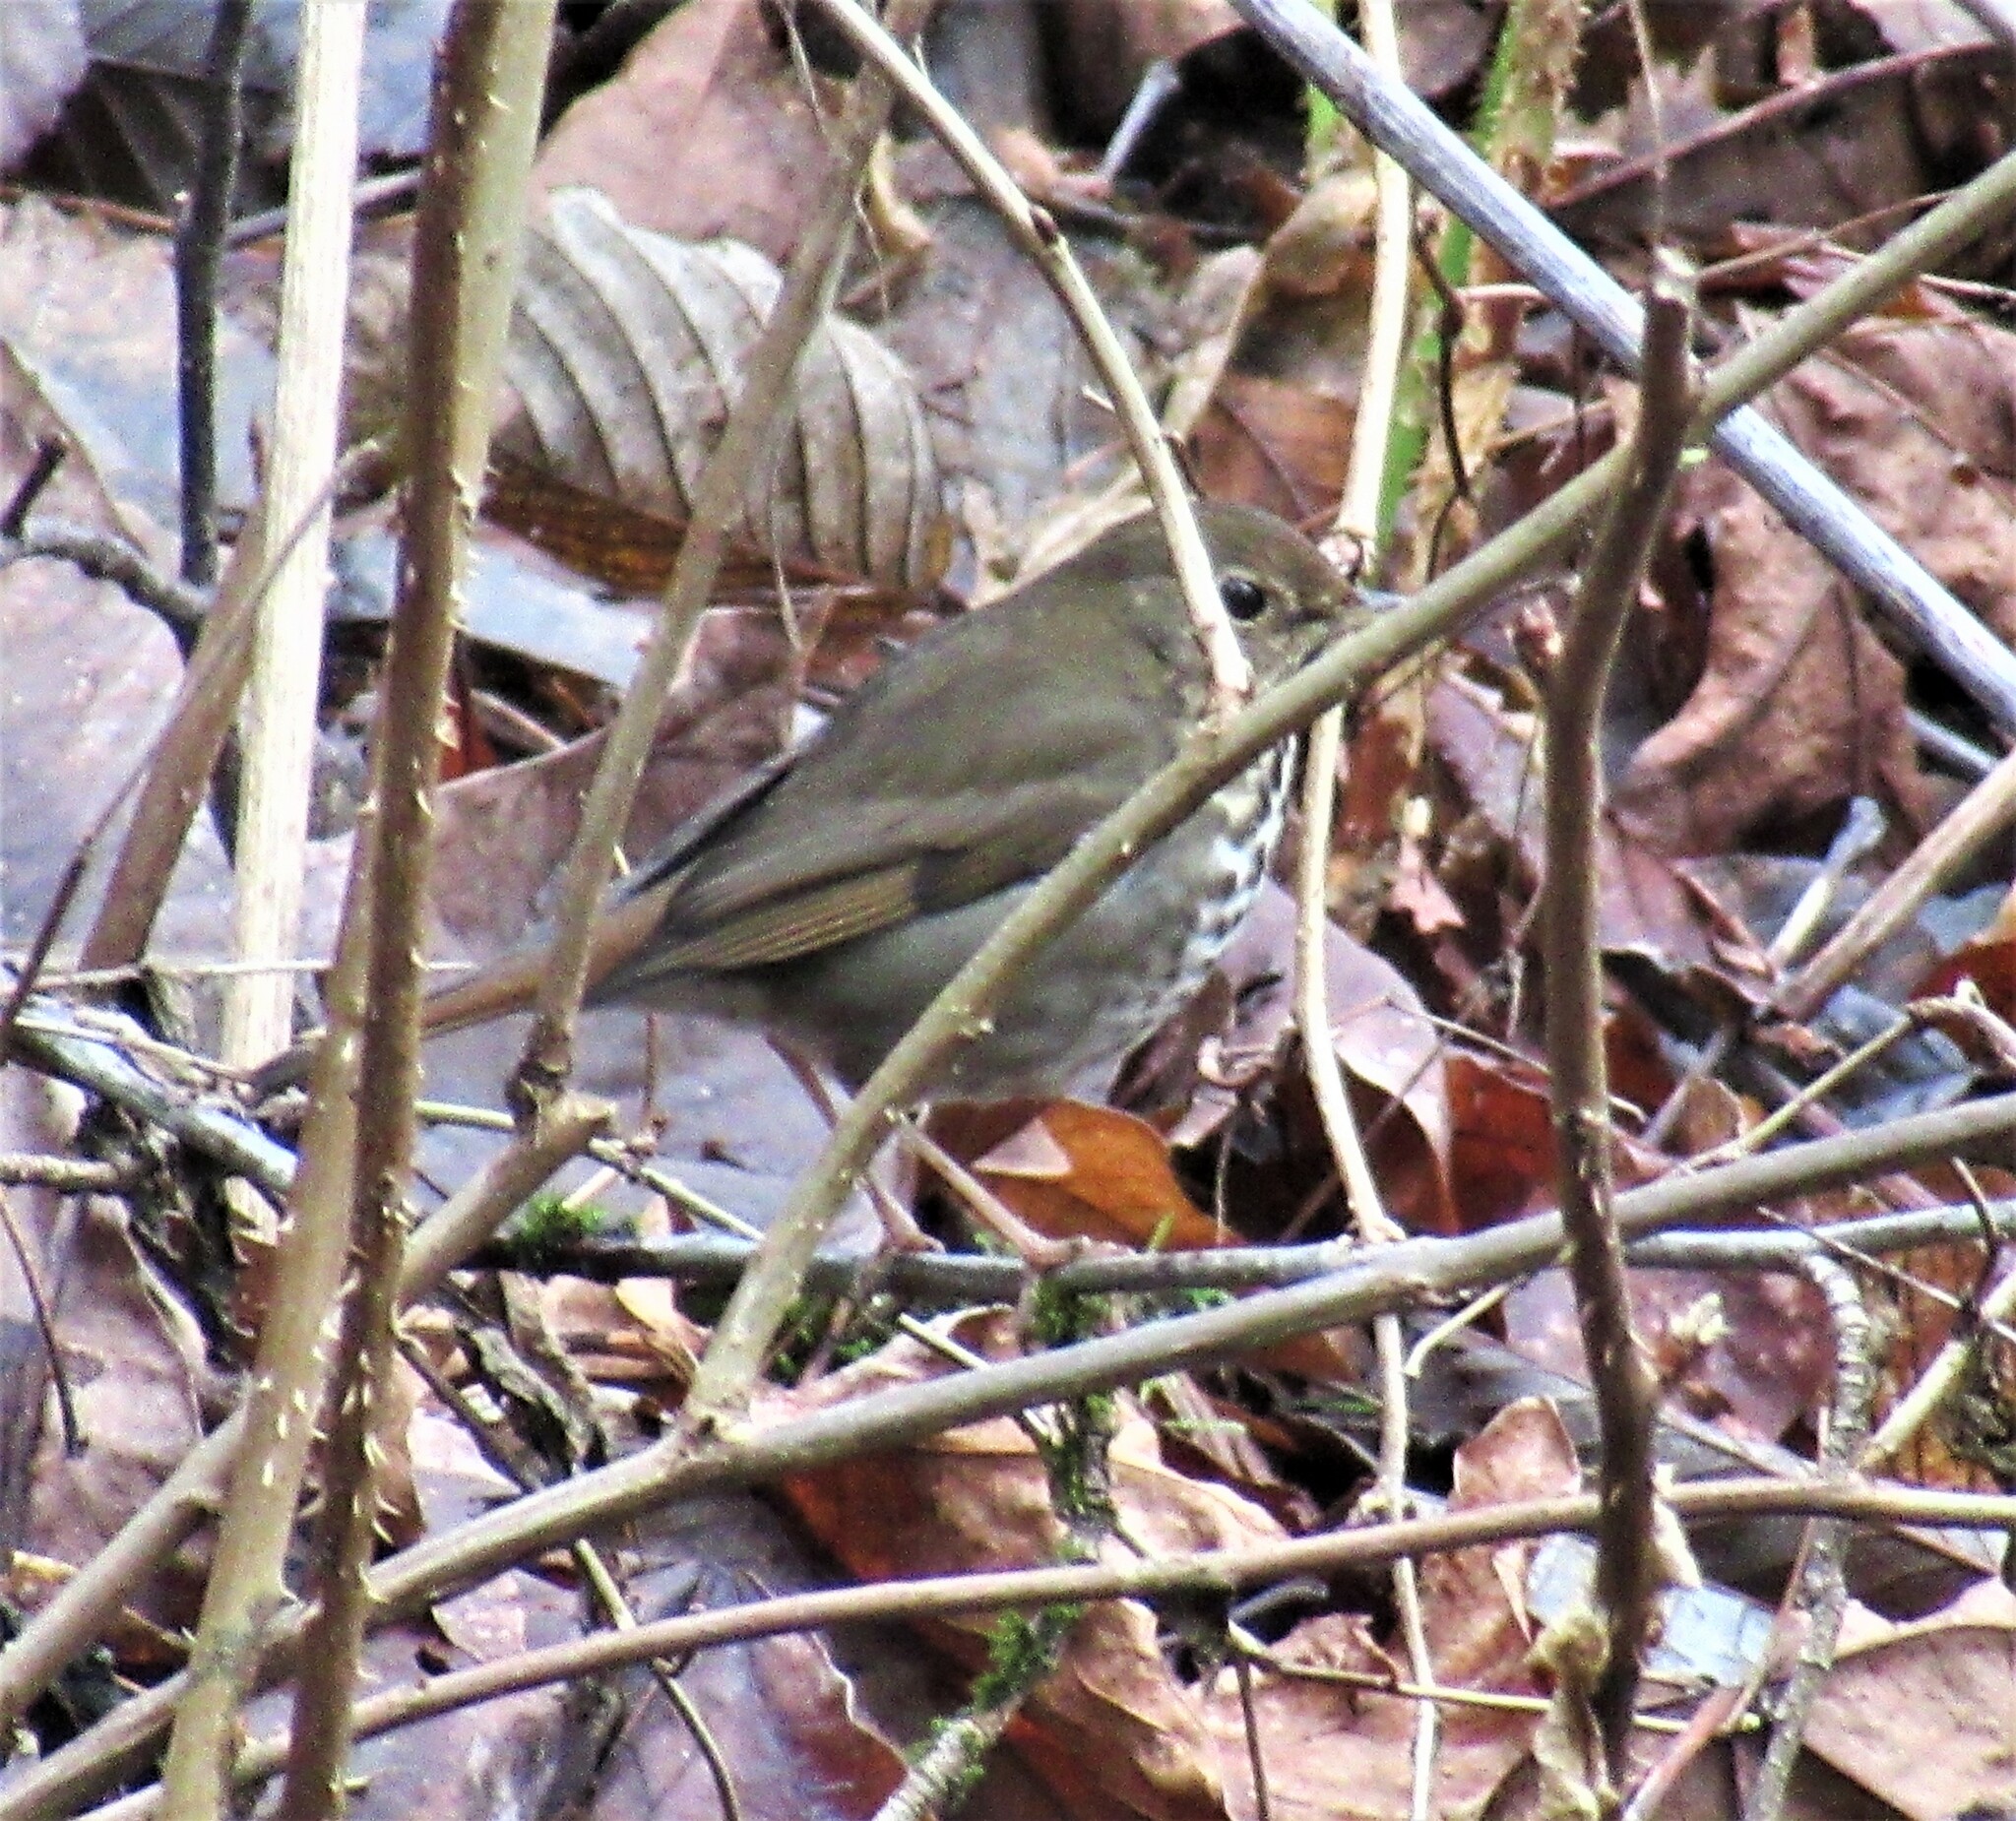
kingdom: Animalia
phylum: Chordata
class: Aves
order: Passeriformes
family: Turdidae
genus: Catharus
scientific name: Catharus guttatus
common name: Hermit thrush
